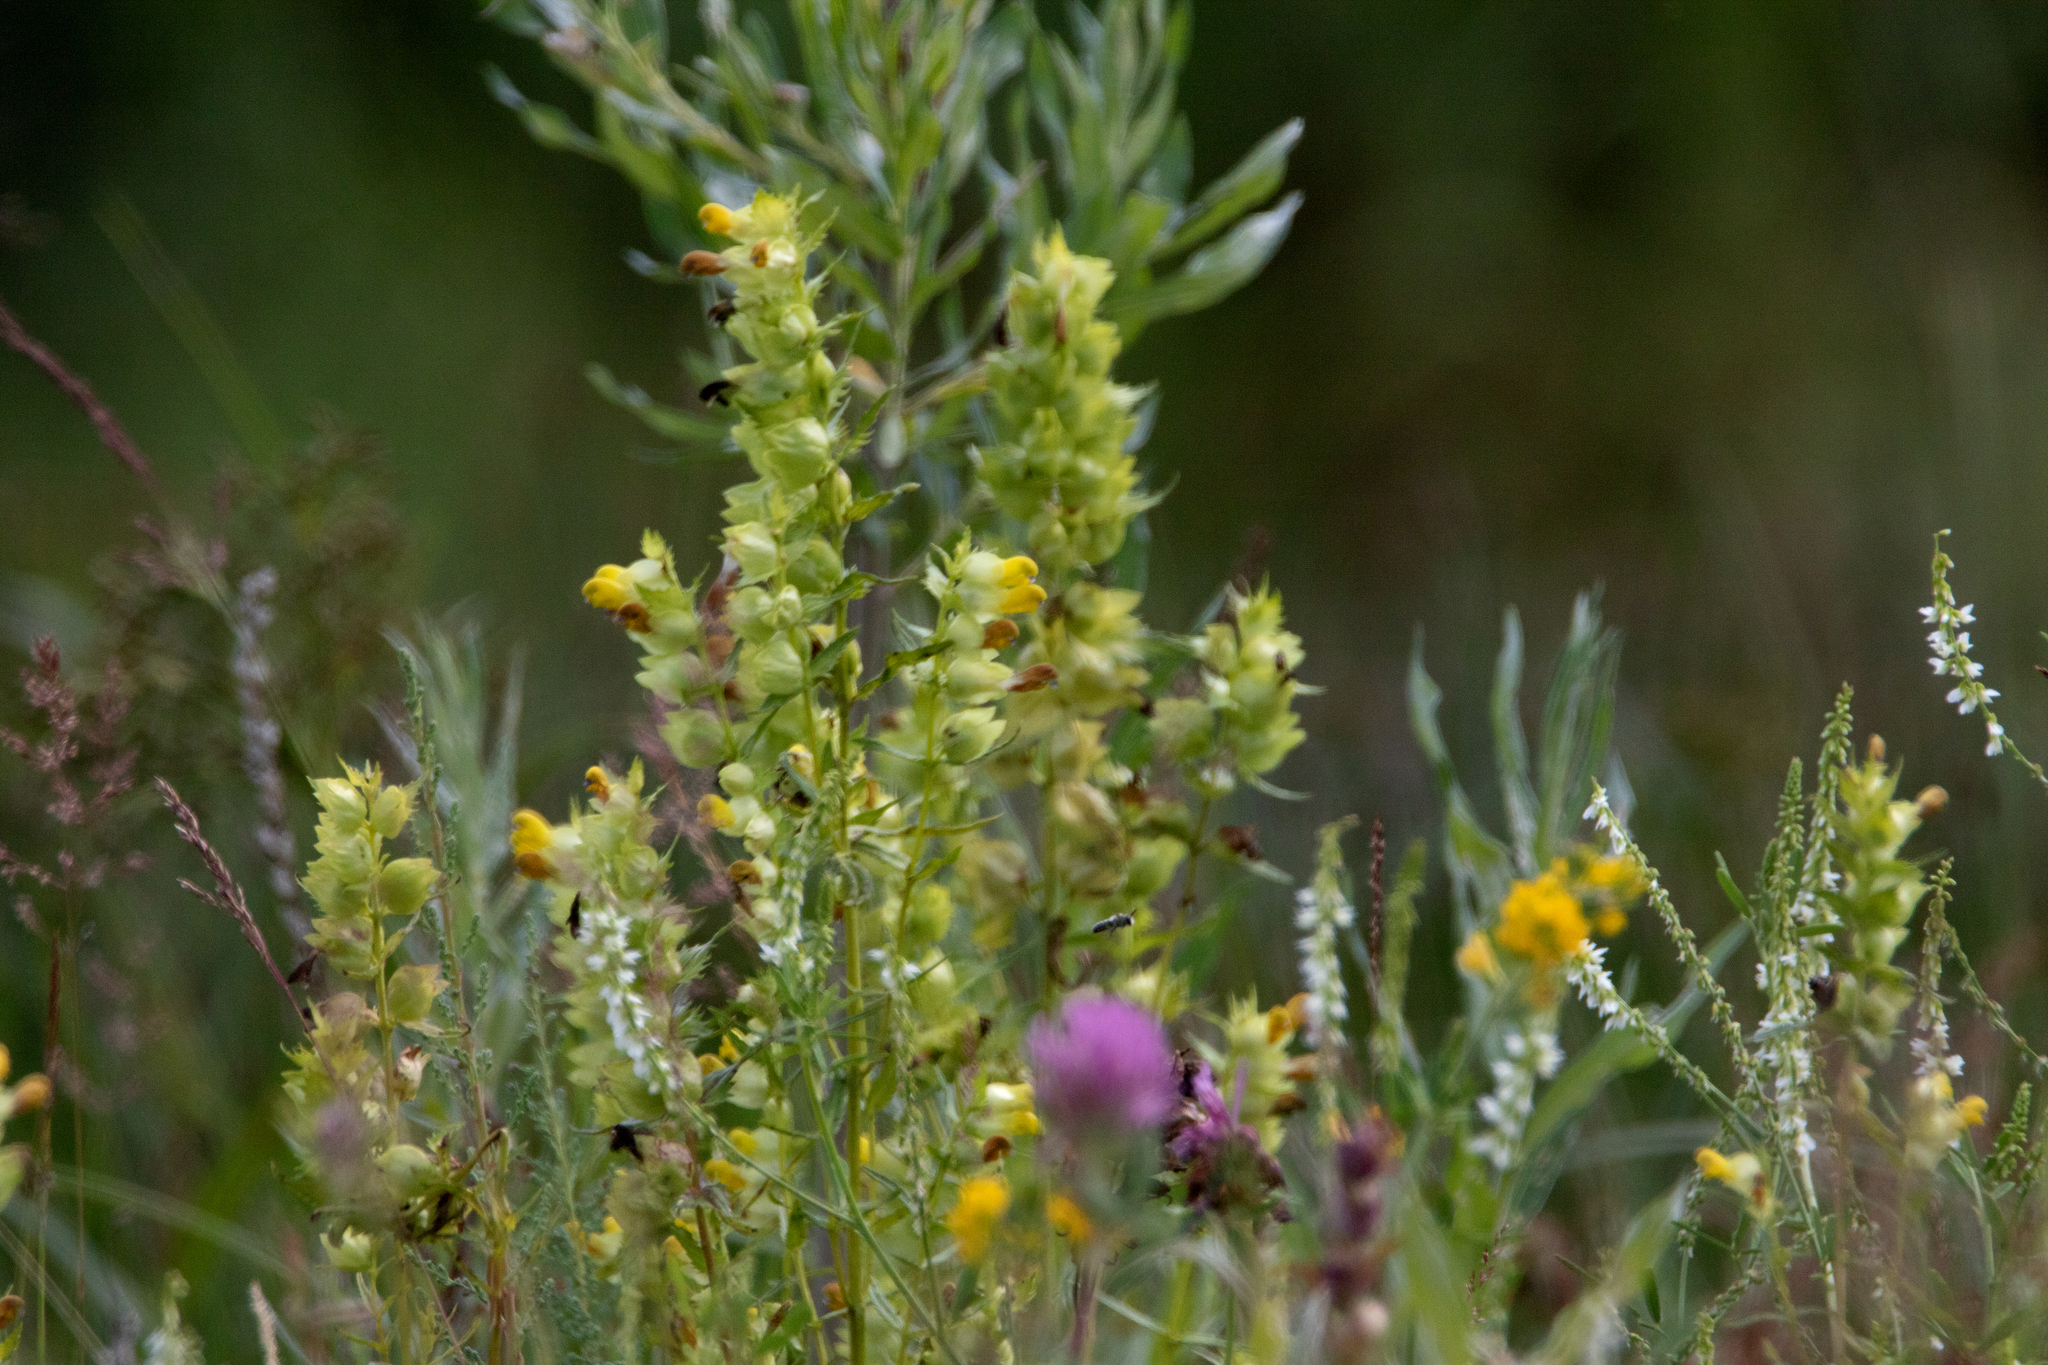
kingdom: Plantae
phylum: Tracheophyta
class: Magnoliopsida
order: Lamiales
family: Orobanchaceae
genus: Rhinanthus
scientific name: Rhinanthus serotinus
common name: Late-flowering yellow rattle
